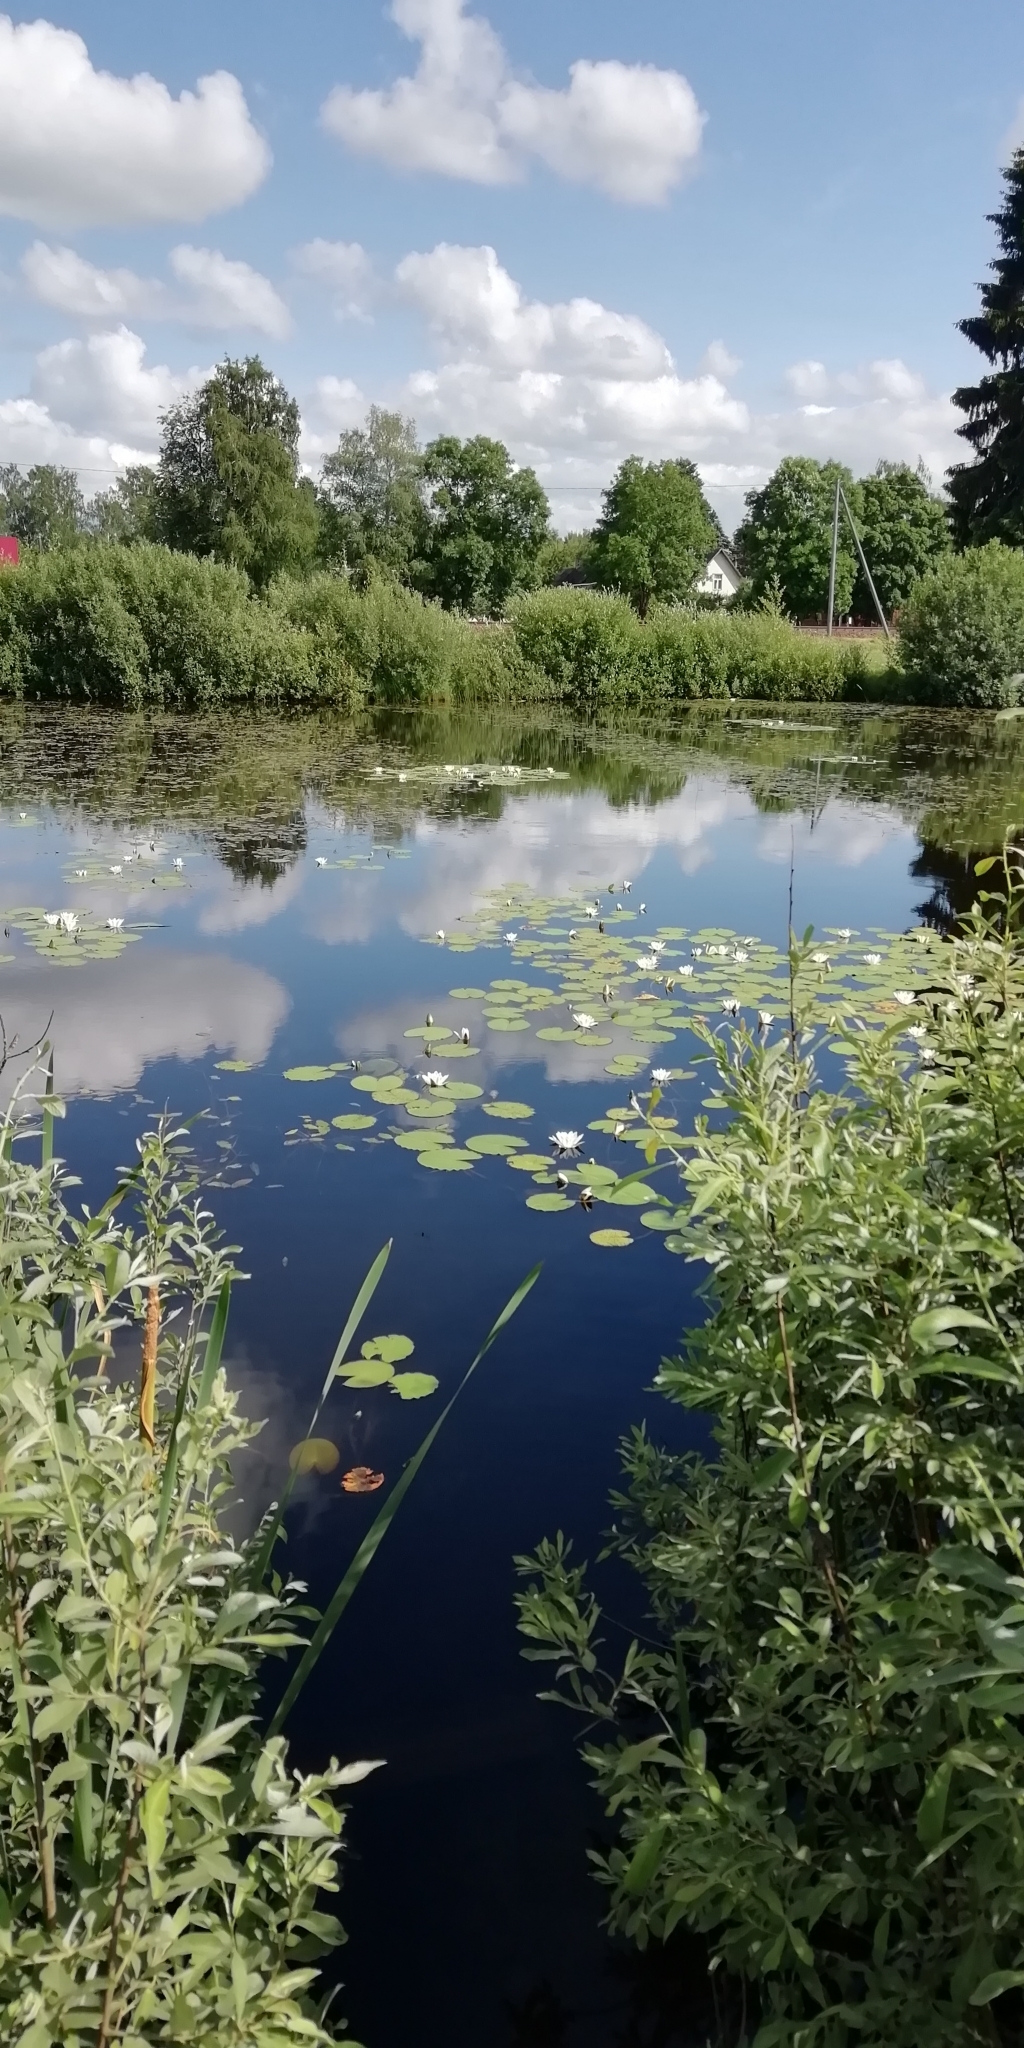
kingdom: Plantae
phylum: Tracheophyta
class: Magnoliopsida
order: Nymphaeales
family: Nymphaeaceae
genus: Nymphaea
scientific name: Nymphaea alba
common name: White water-lily
